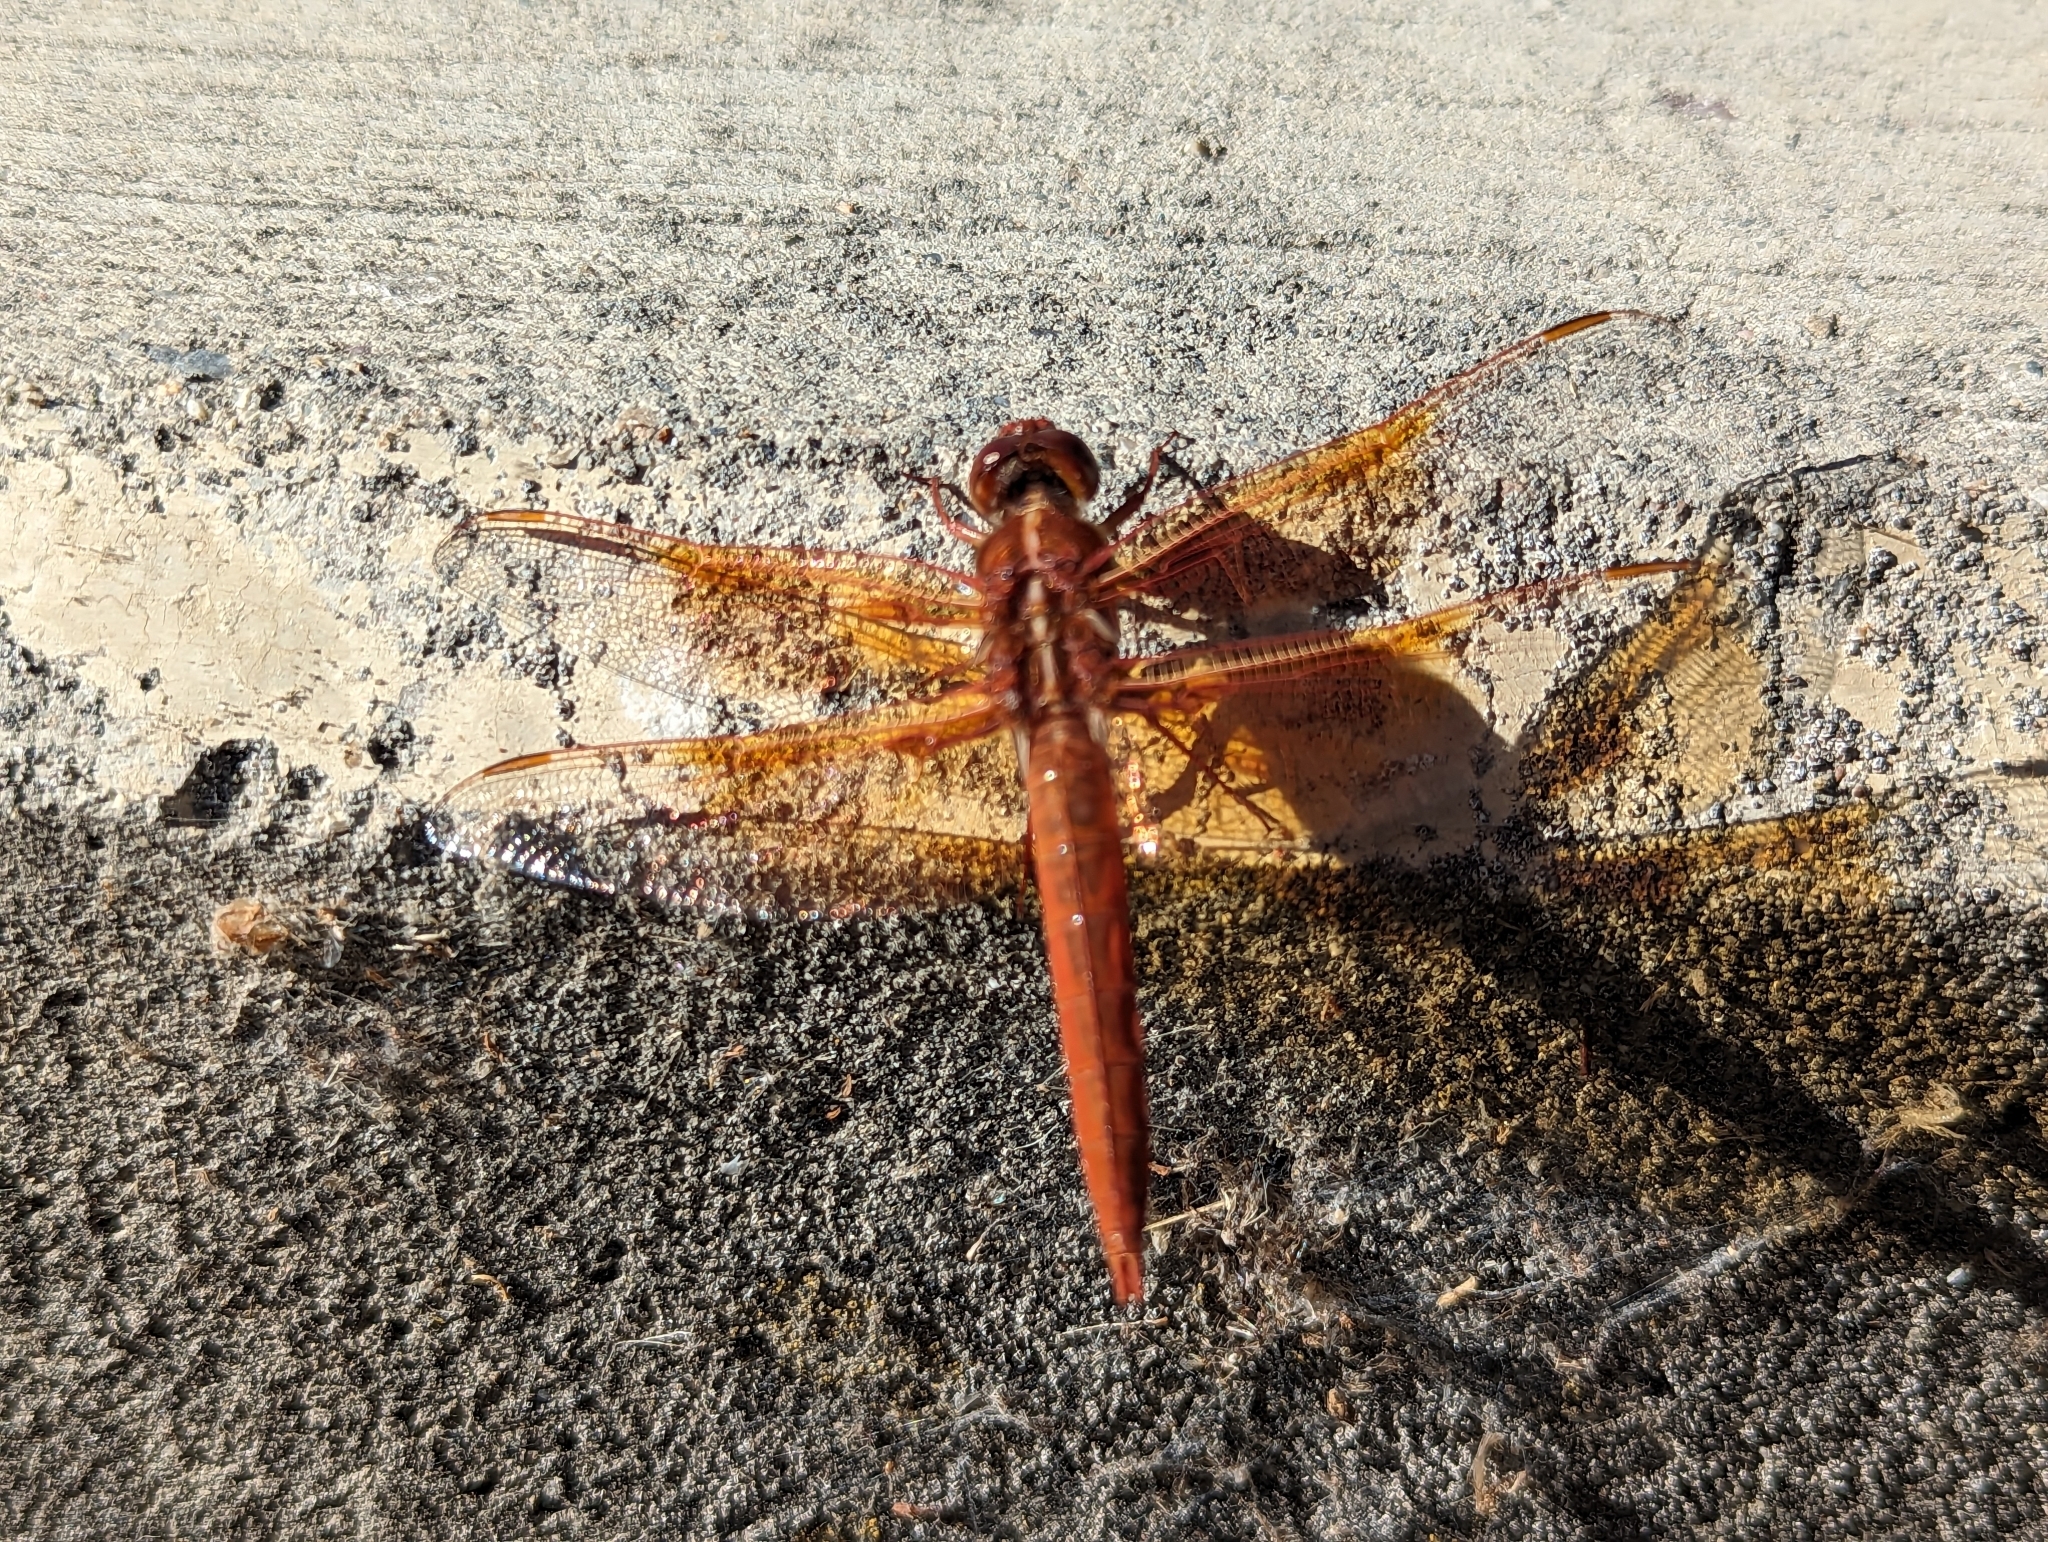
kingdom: Animalia
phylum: Arthropoda
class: Insecta
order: Odonata
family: Libellulidae
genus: Libellula
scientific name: Libellula saturata
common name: Flame skimmer
